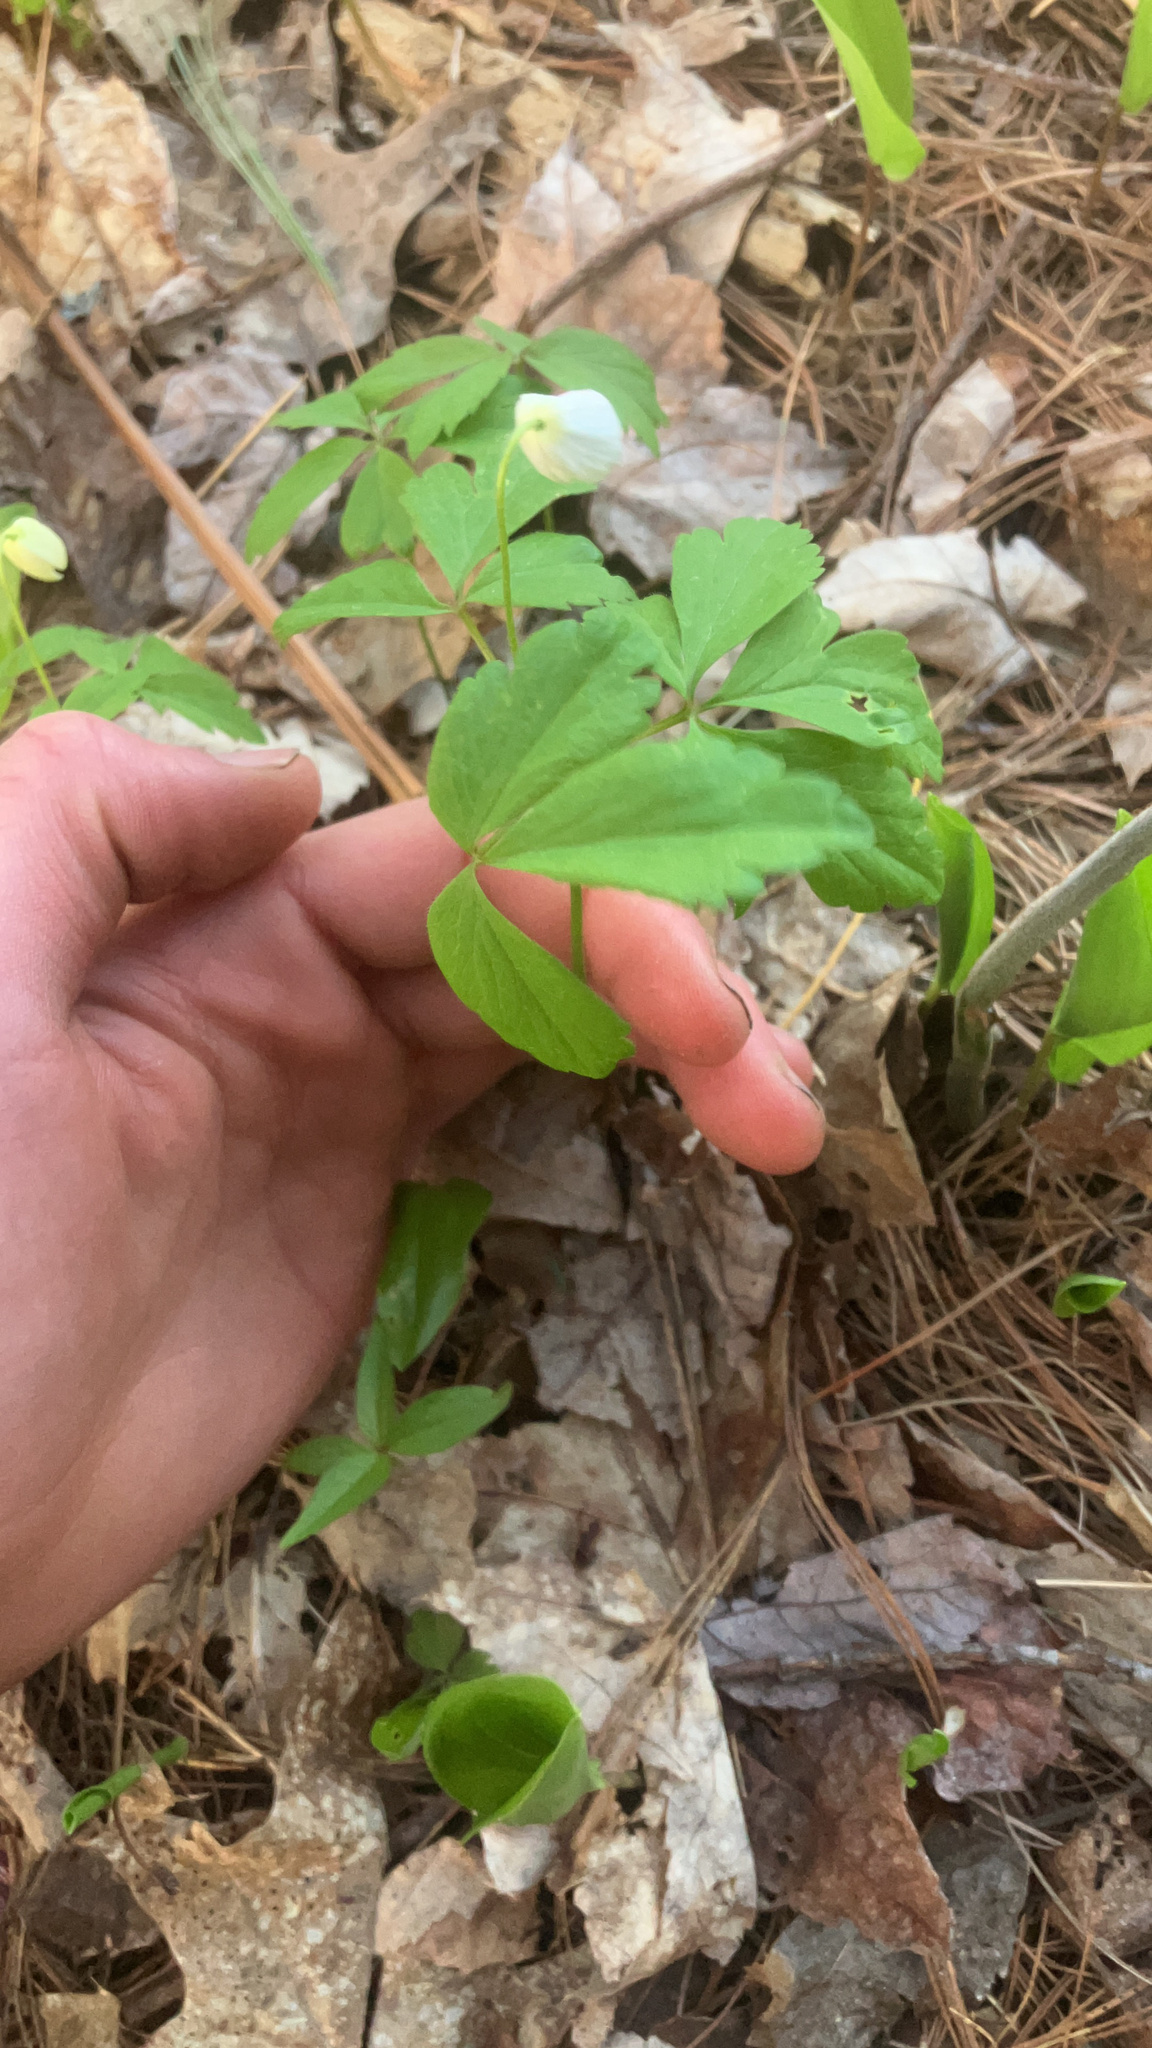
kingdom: Plantae
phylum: Tracheophyta
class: Magnoliopsida
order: Ranunculales
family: Ranunculaceae
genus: Anemone
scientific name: Anemone quinquefolia
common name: Wood anemone
